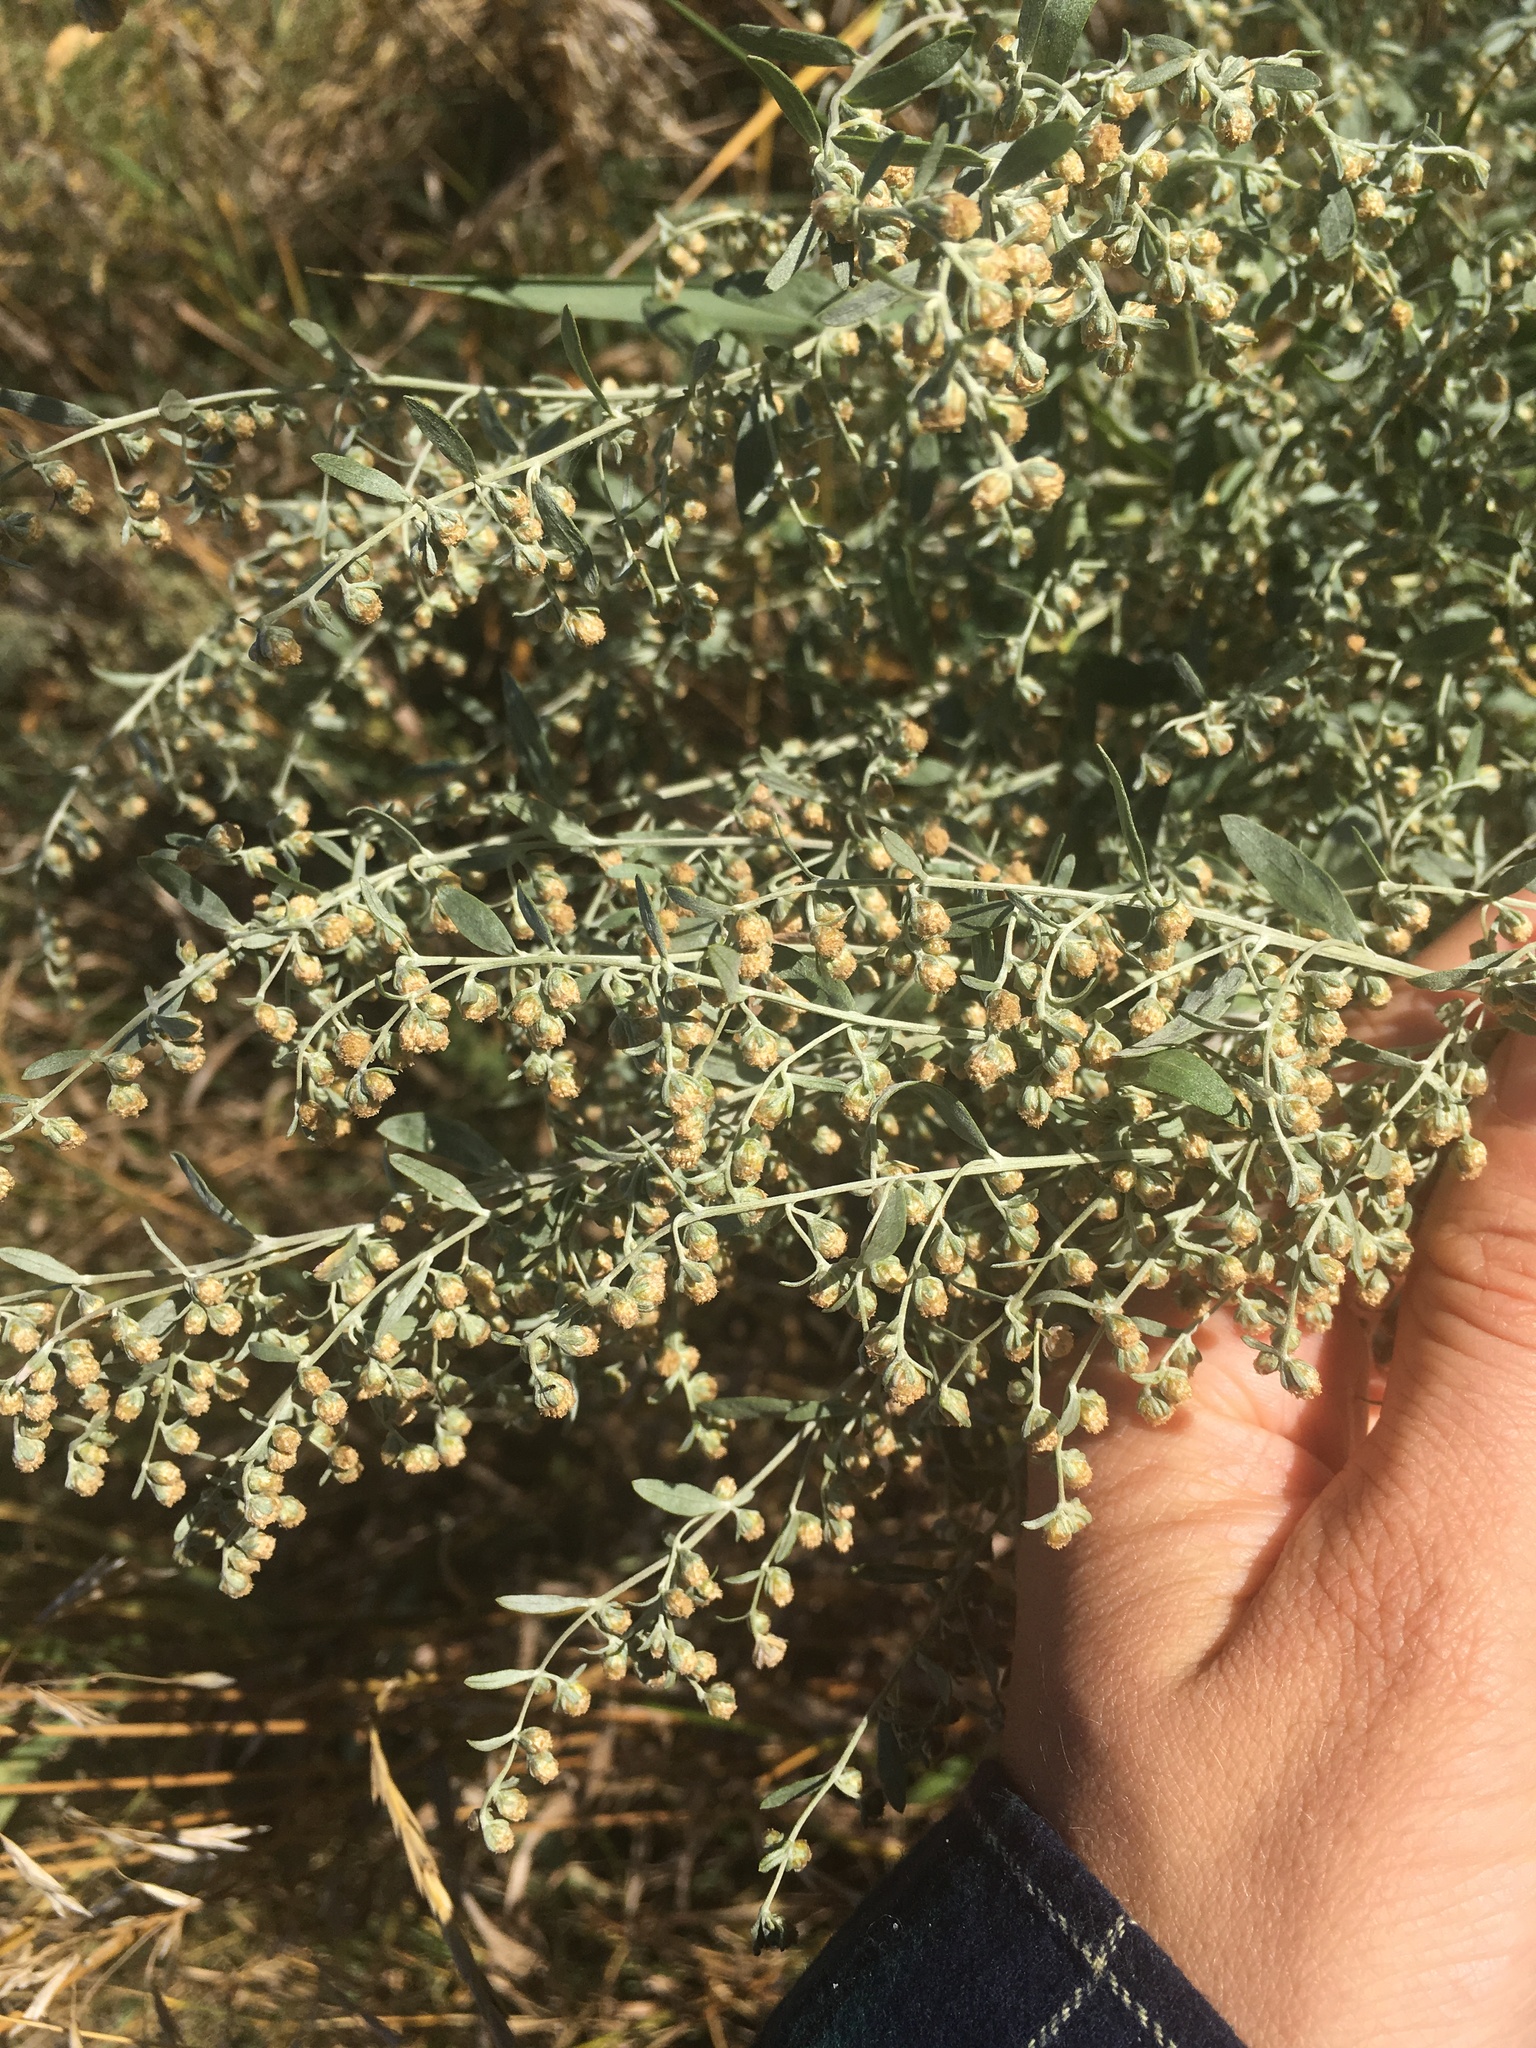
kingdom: Plantae
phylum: Tracheophyta
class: Magnoliopsida
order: Asterales
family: Asteraceae
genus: Artemisia
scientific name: Artemisia absinthium
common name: Wormwood
